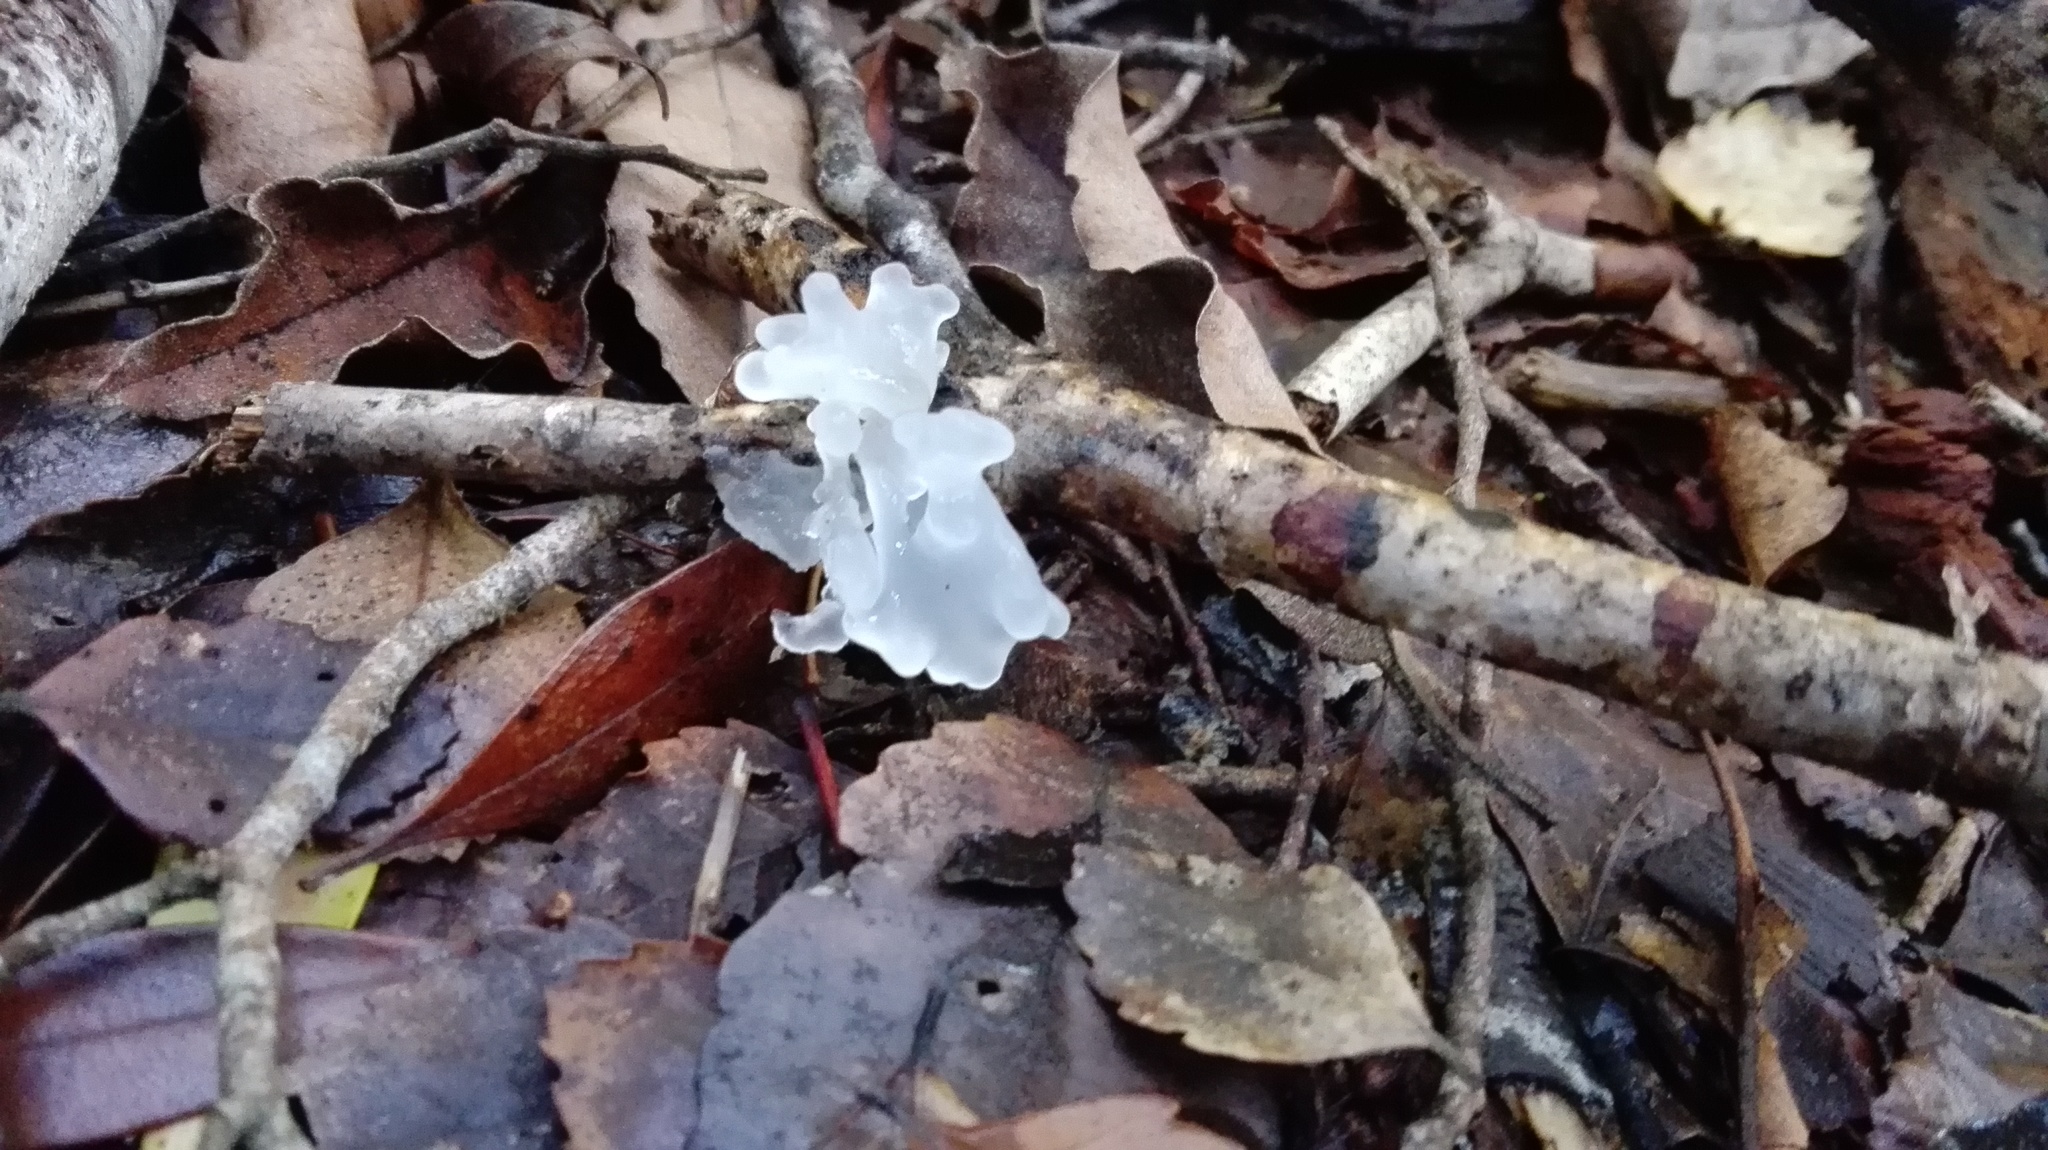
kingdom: Fungi
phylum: Basidiomycota
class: Tremellomycetes
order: Tremellales
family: Tremellaceae
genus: Tremella
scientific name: Tremella fuciformis
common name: Snow fungus
